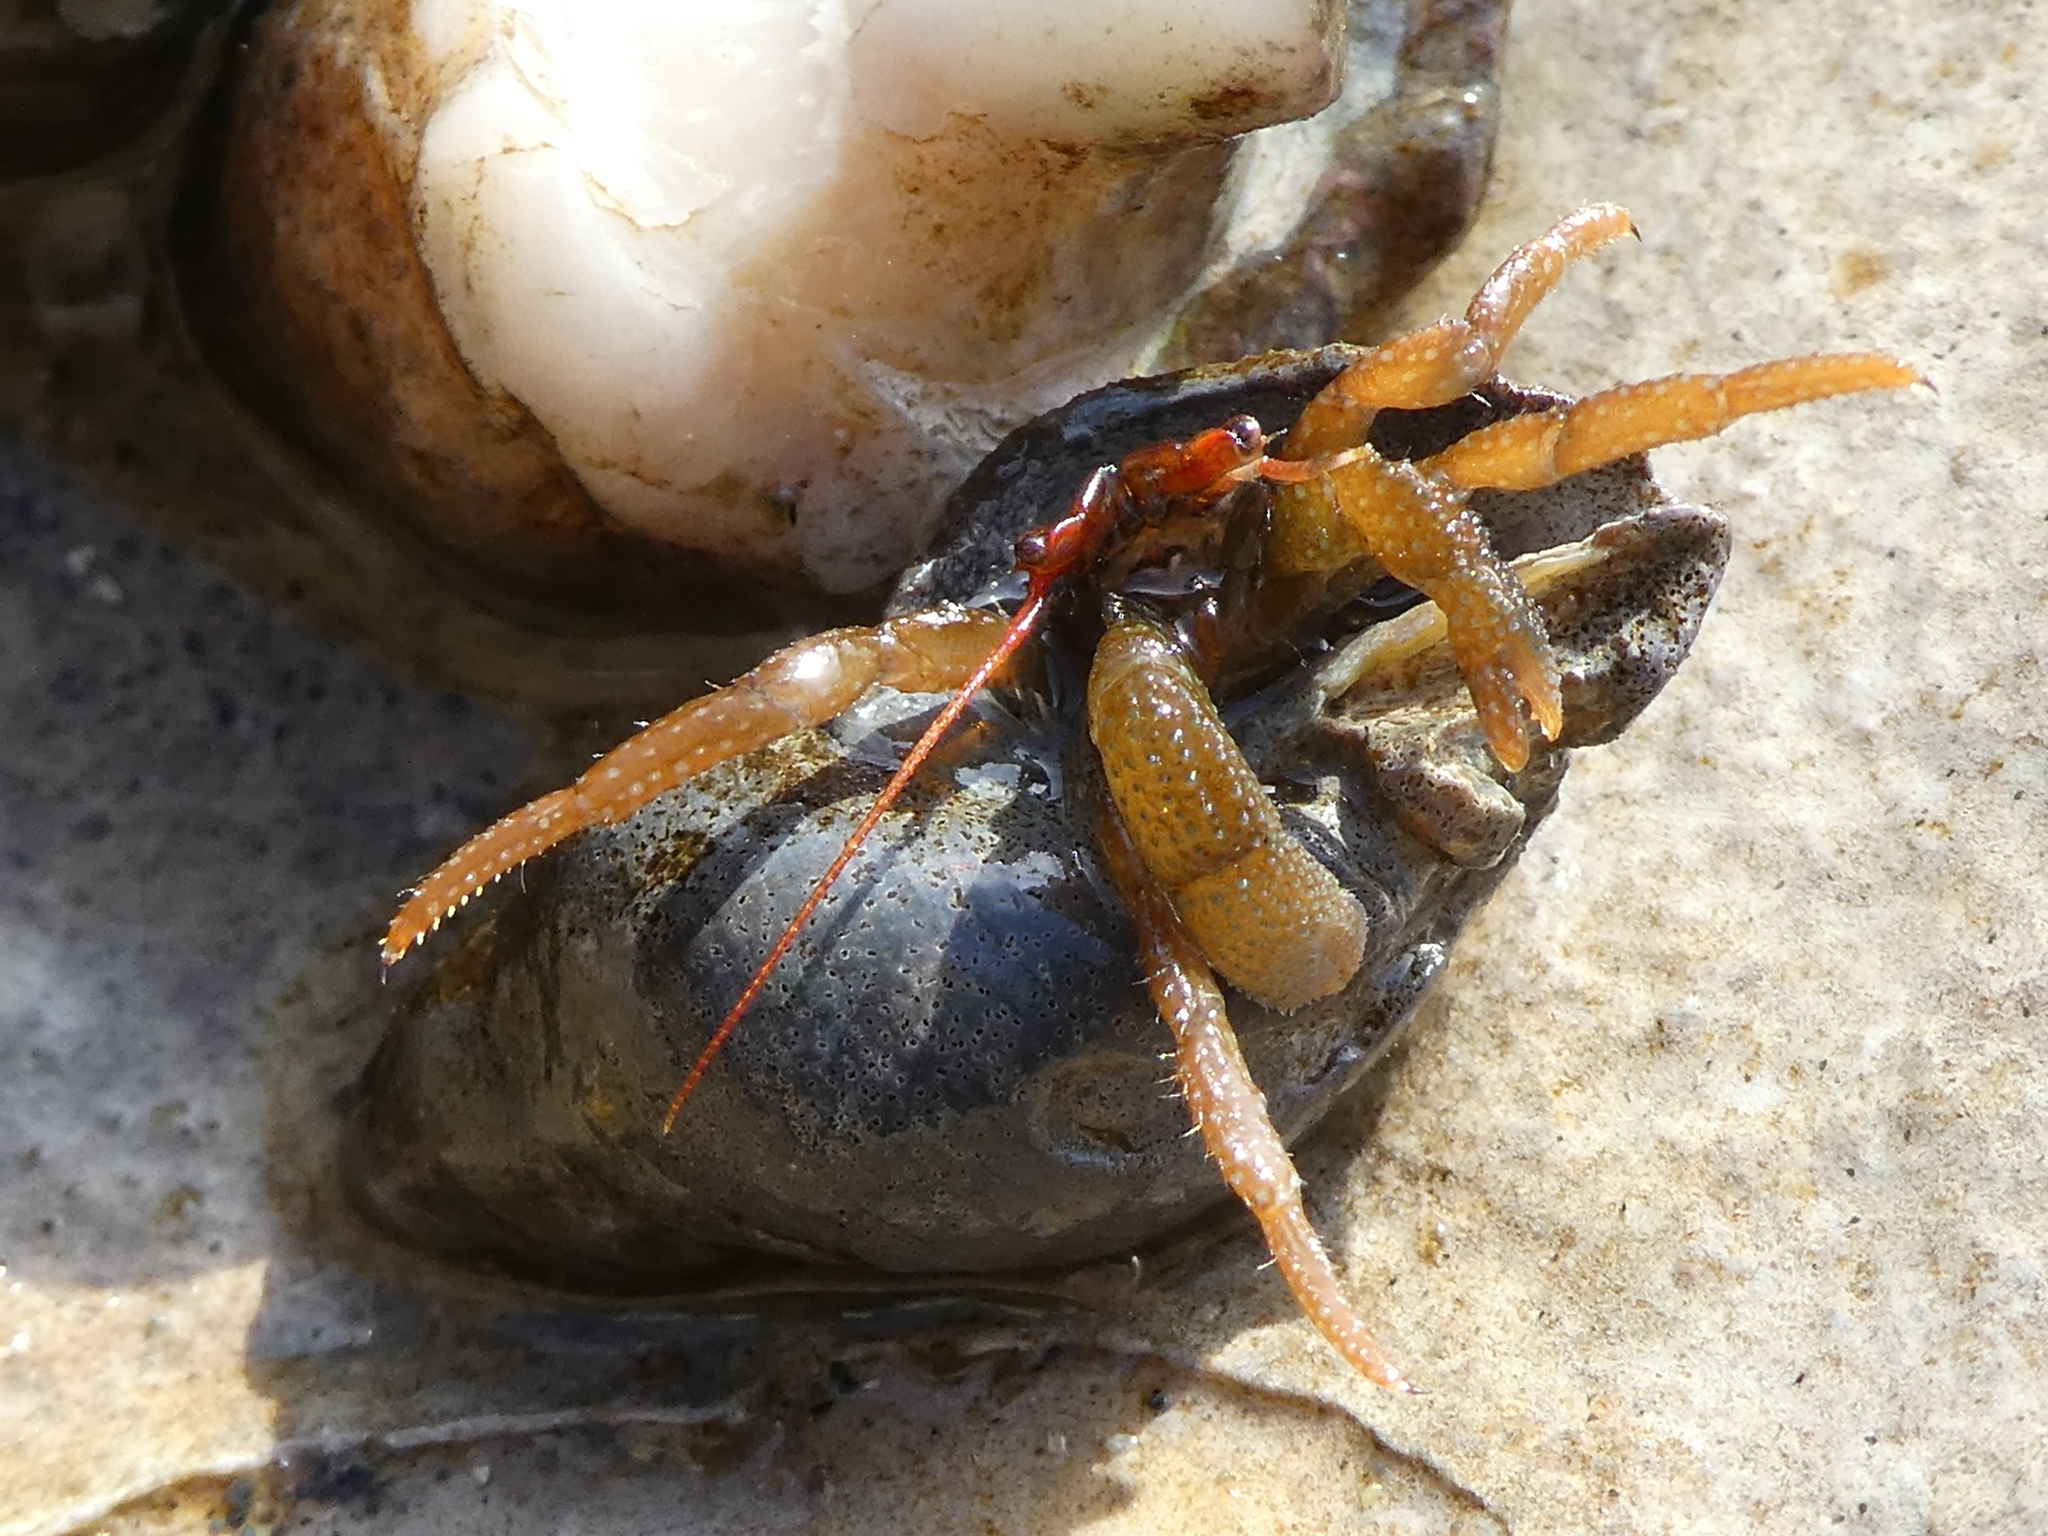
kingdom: Animalia
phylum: Arthropoda
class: Malacostraca
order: Decapoda
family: Paguridae
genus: Pagurus
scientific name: Pagurus granosimanus
